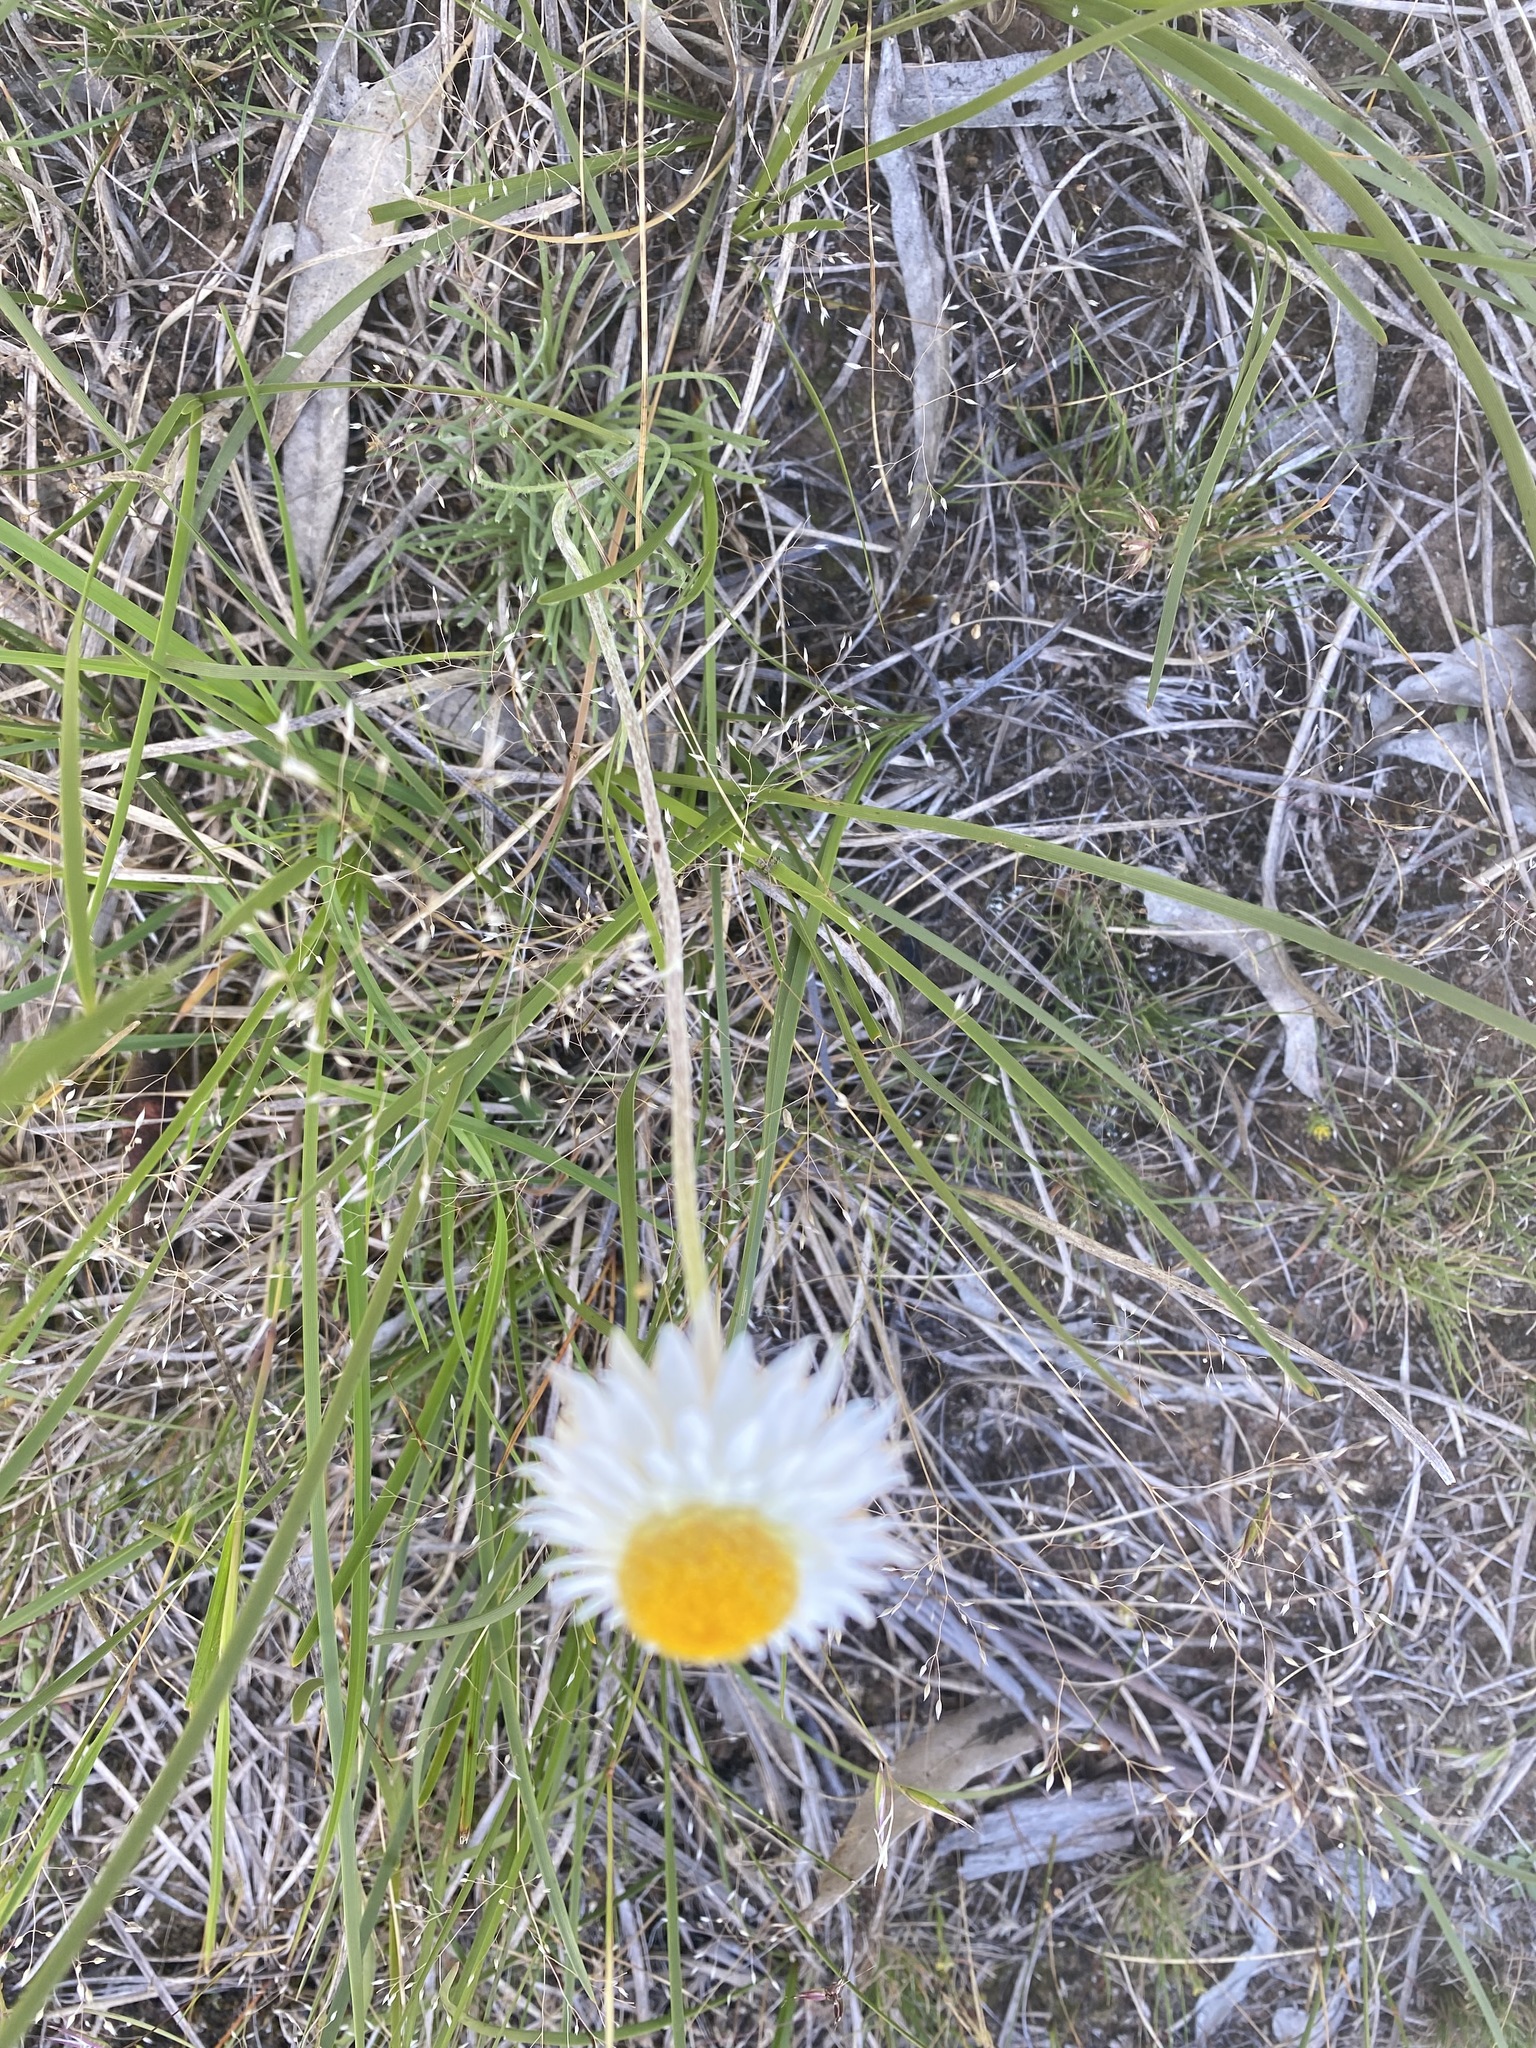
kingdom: Plantae
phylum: Tracheophyta
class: Magnoliopsida
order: Asterales
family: Asteraceae
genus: Leucochrysum
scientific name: Leucochrysum albicans
